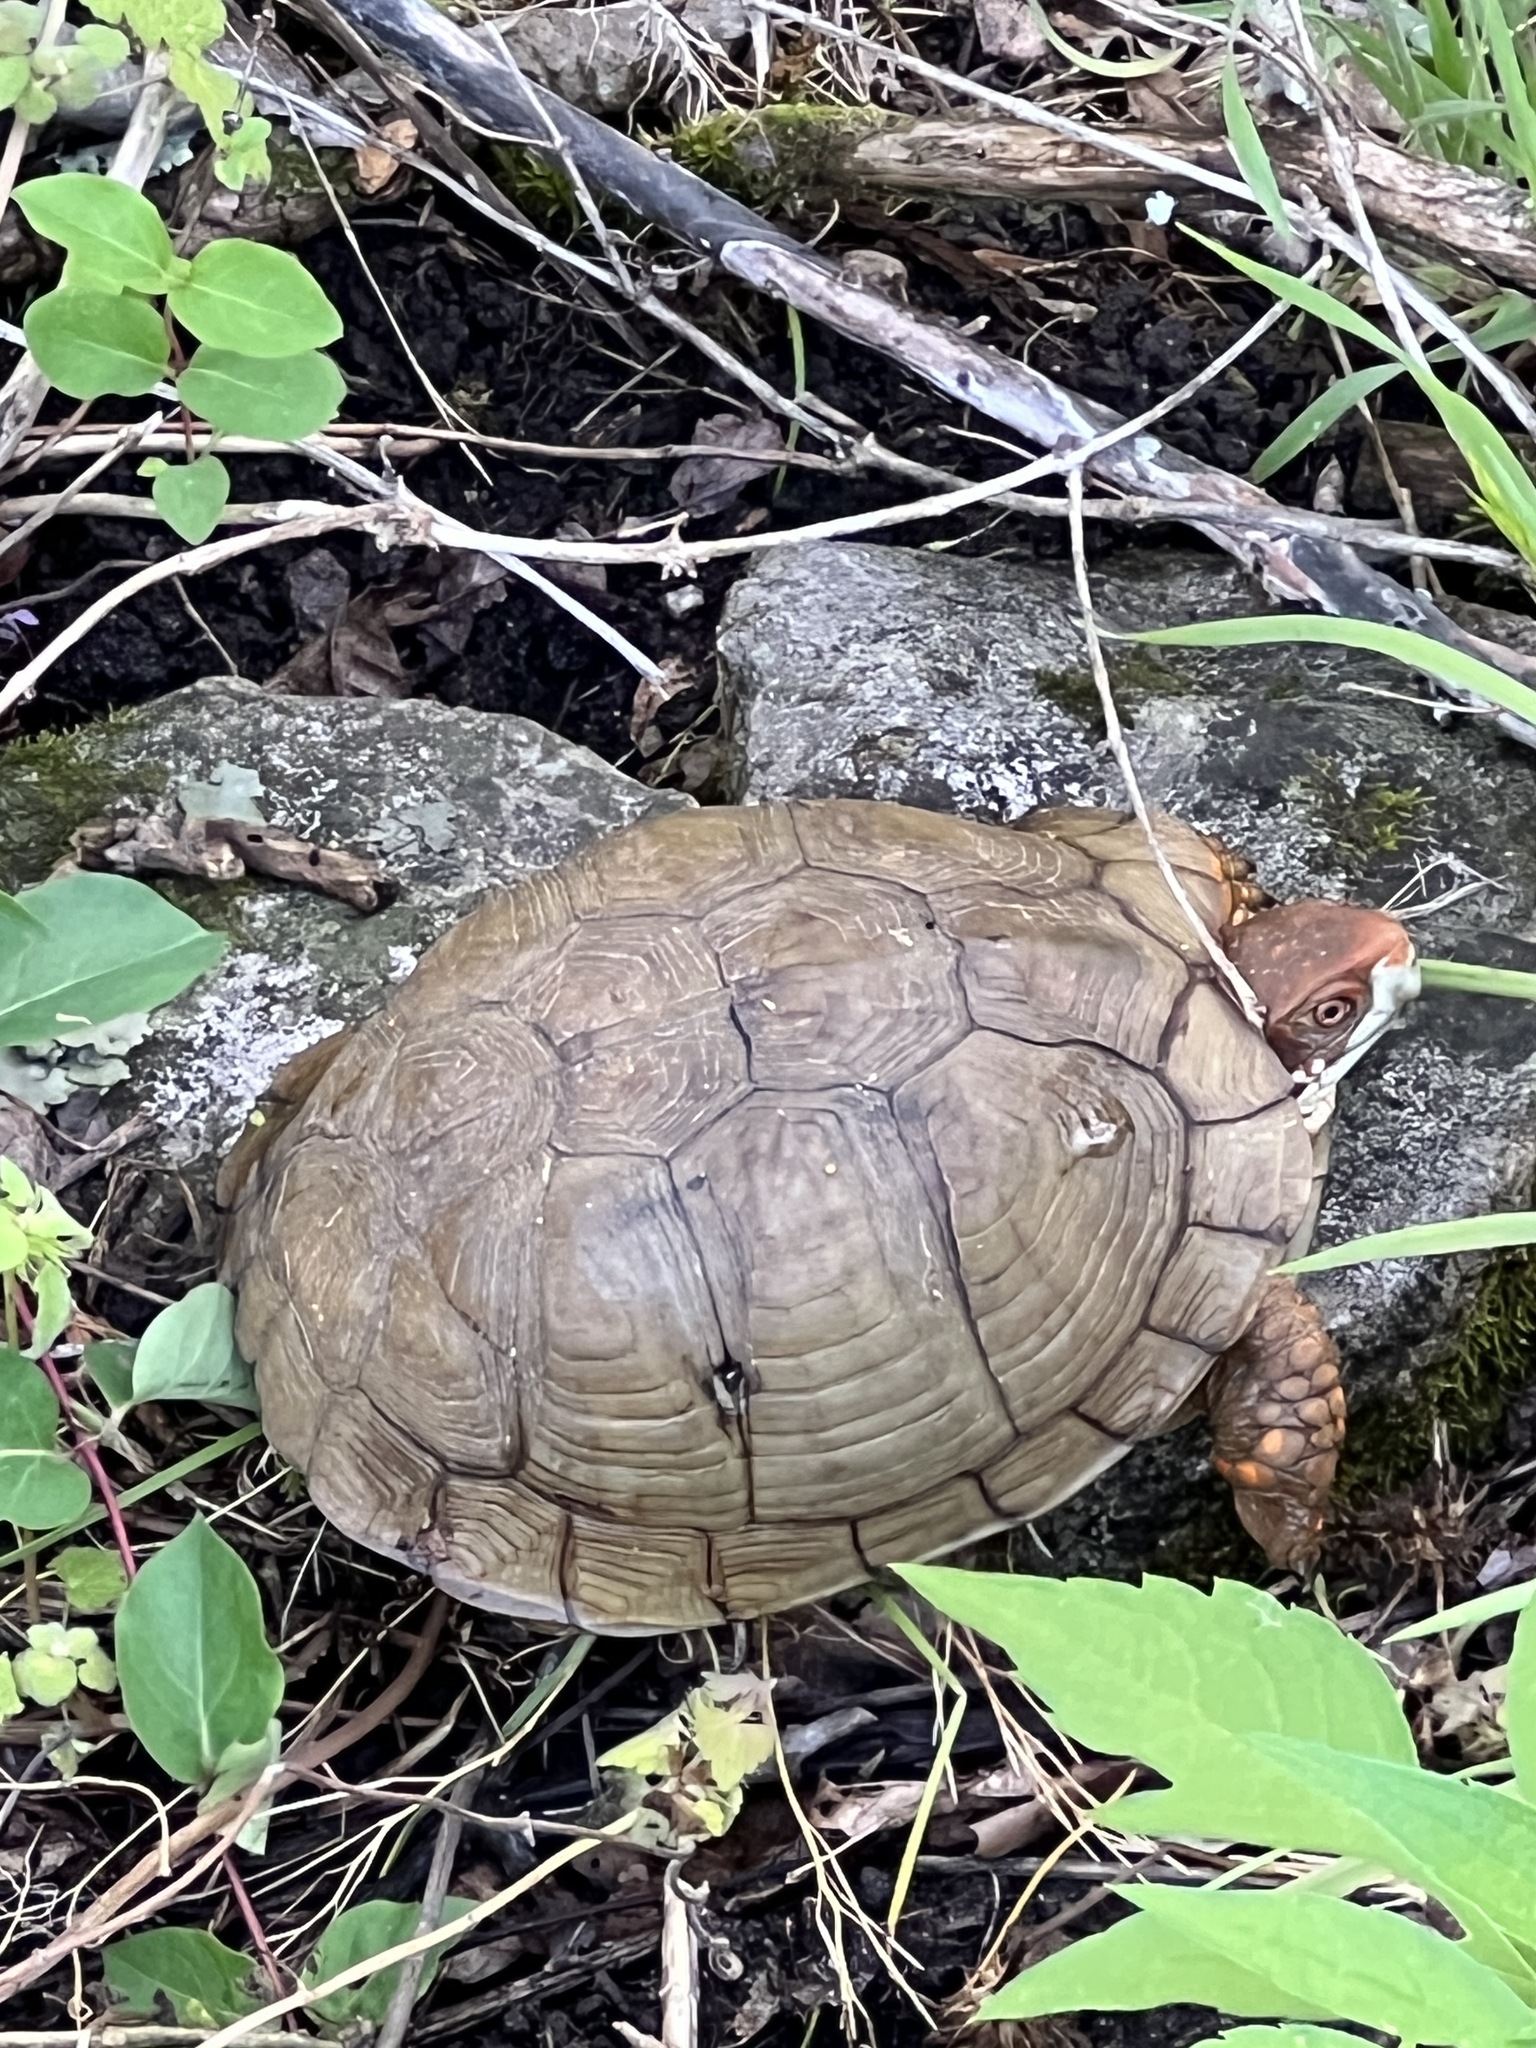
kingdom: Animalia
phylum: Chordata
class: Testudines
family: Emydidae
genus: Terrapene
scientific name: Terrapene carolina
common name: Common box turtle
